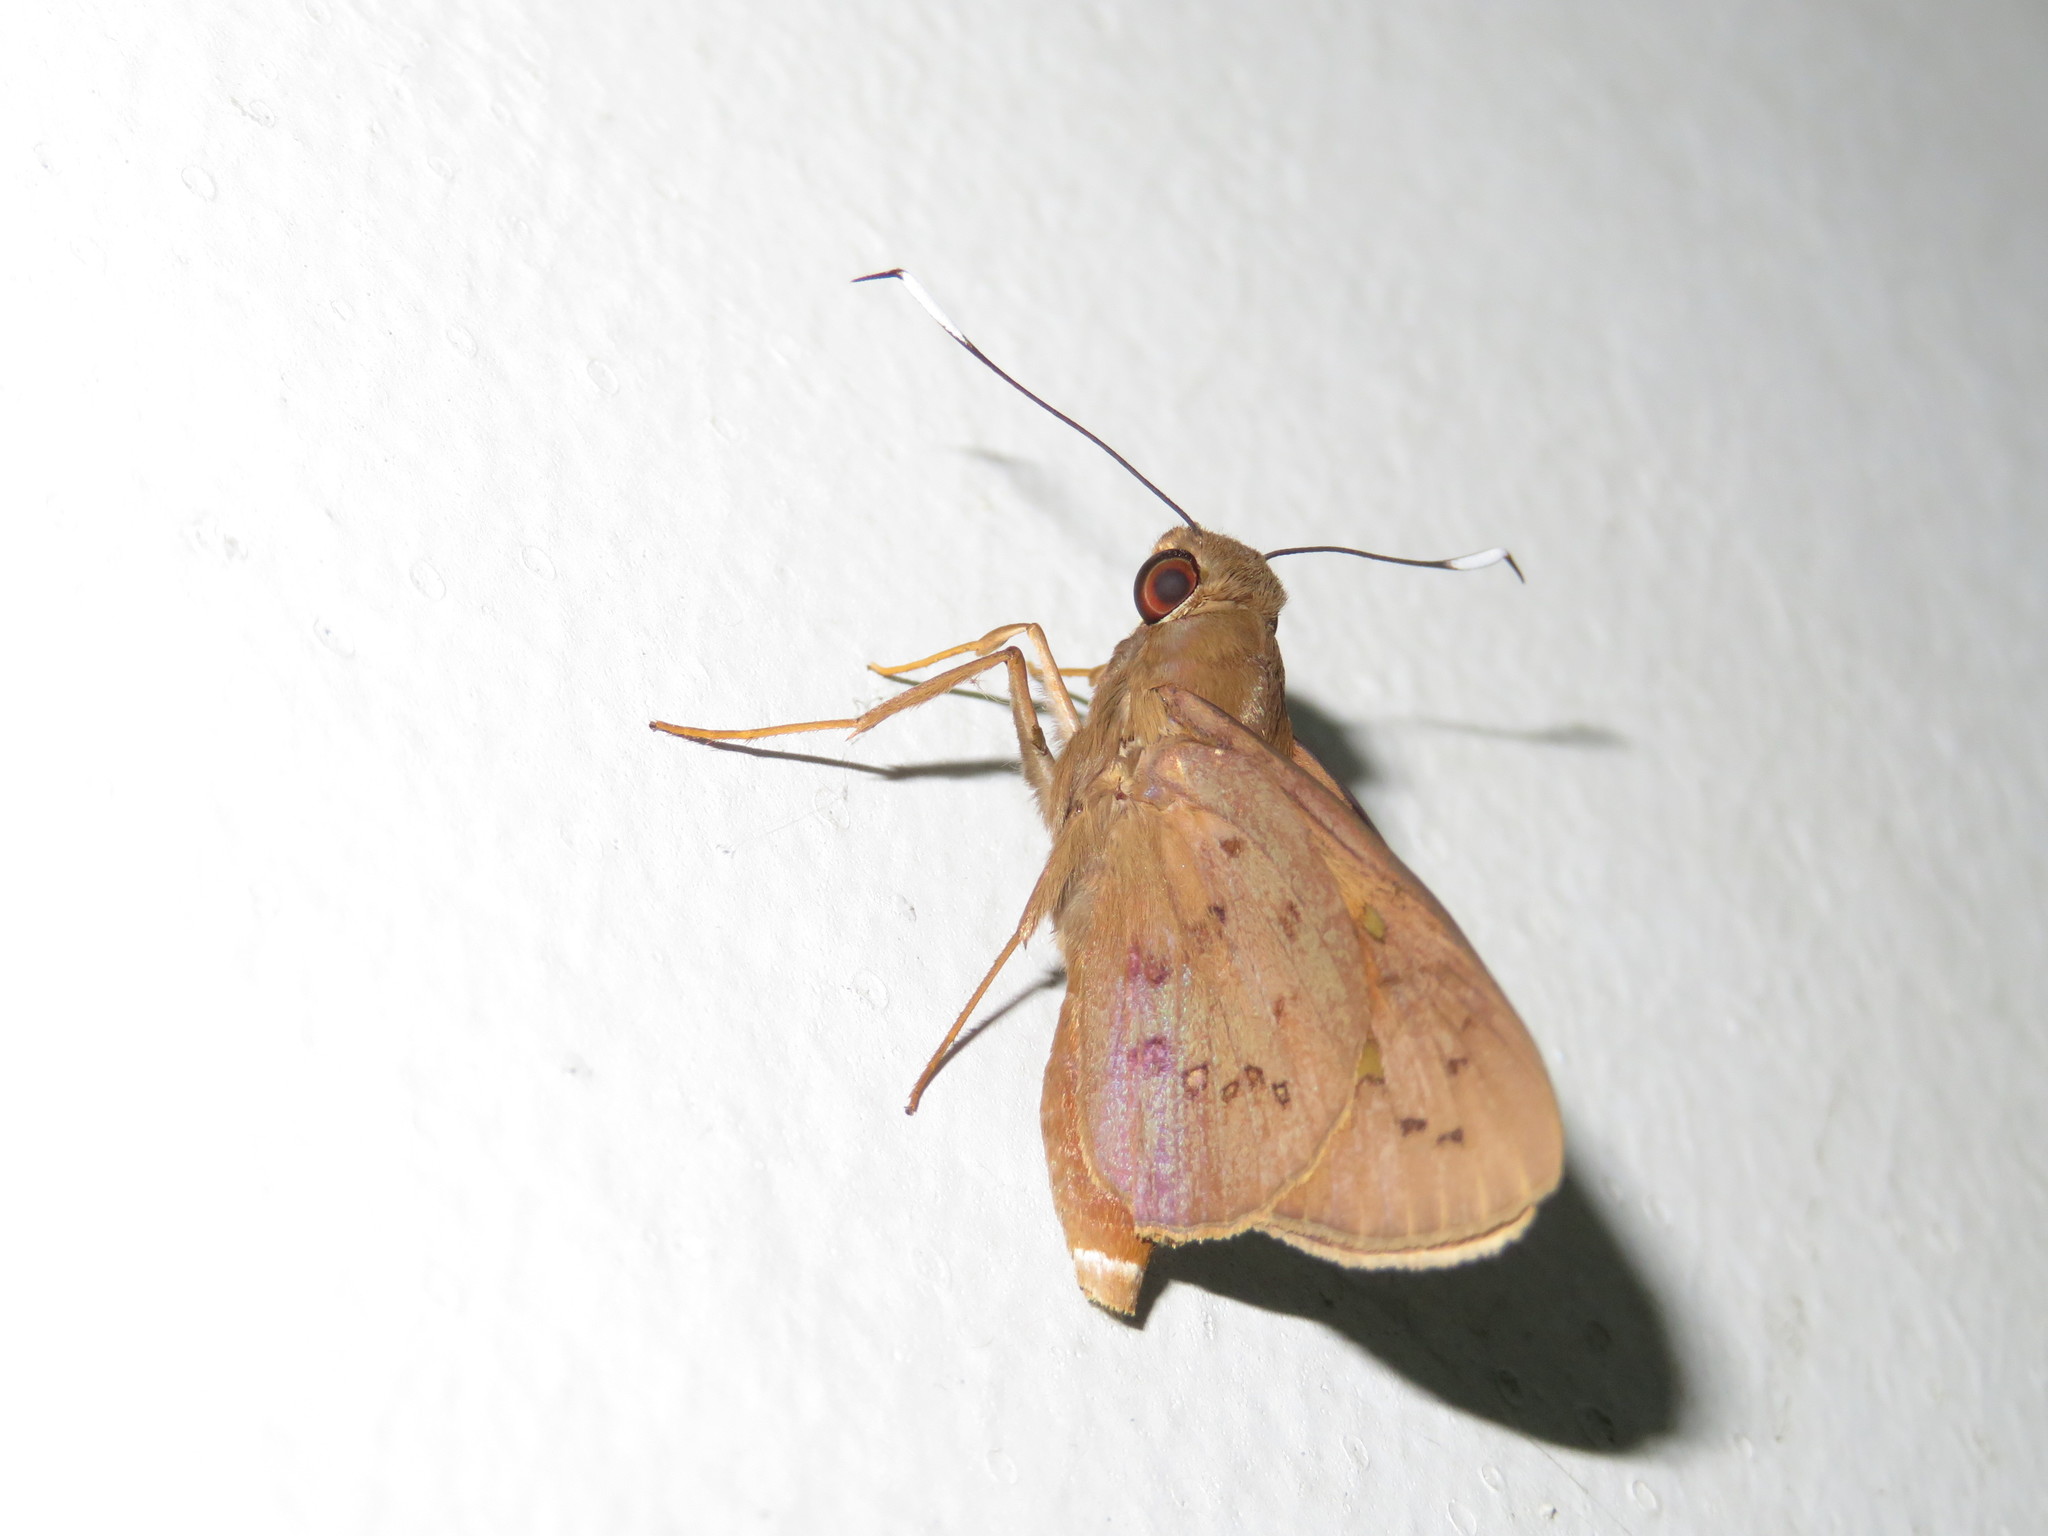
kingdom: Animalia
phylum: Arthropoda
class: Insecta
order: Lepidoptera
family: Hesperiidae
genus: Zophopetes
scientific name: Zophopetes cerymica
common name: Common palm nightfighter
